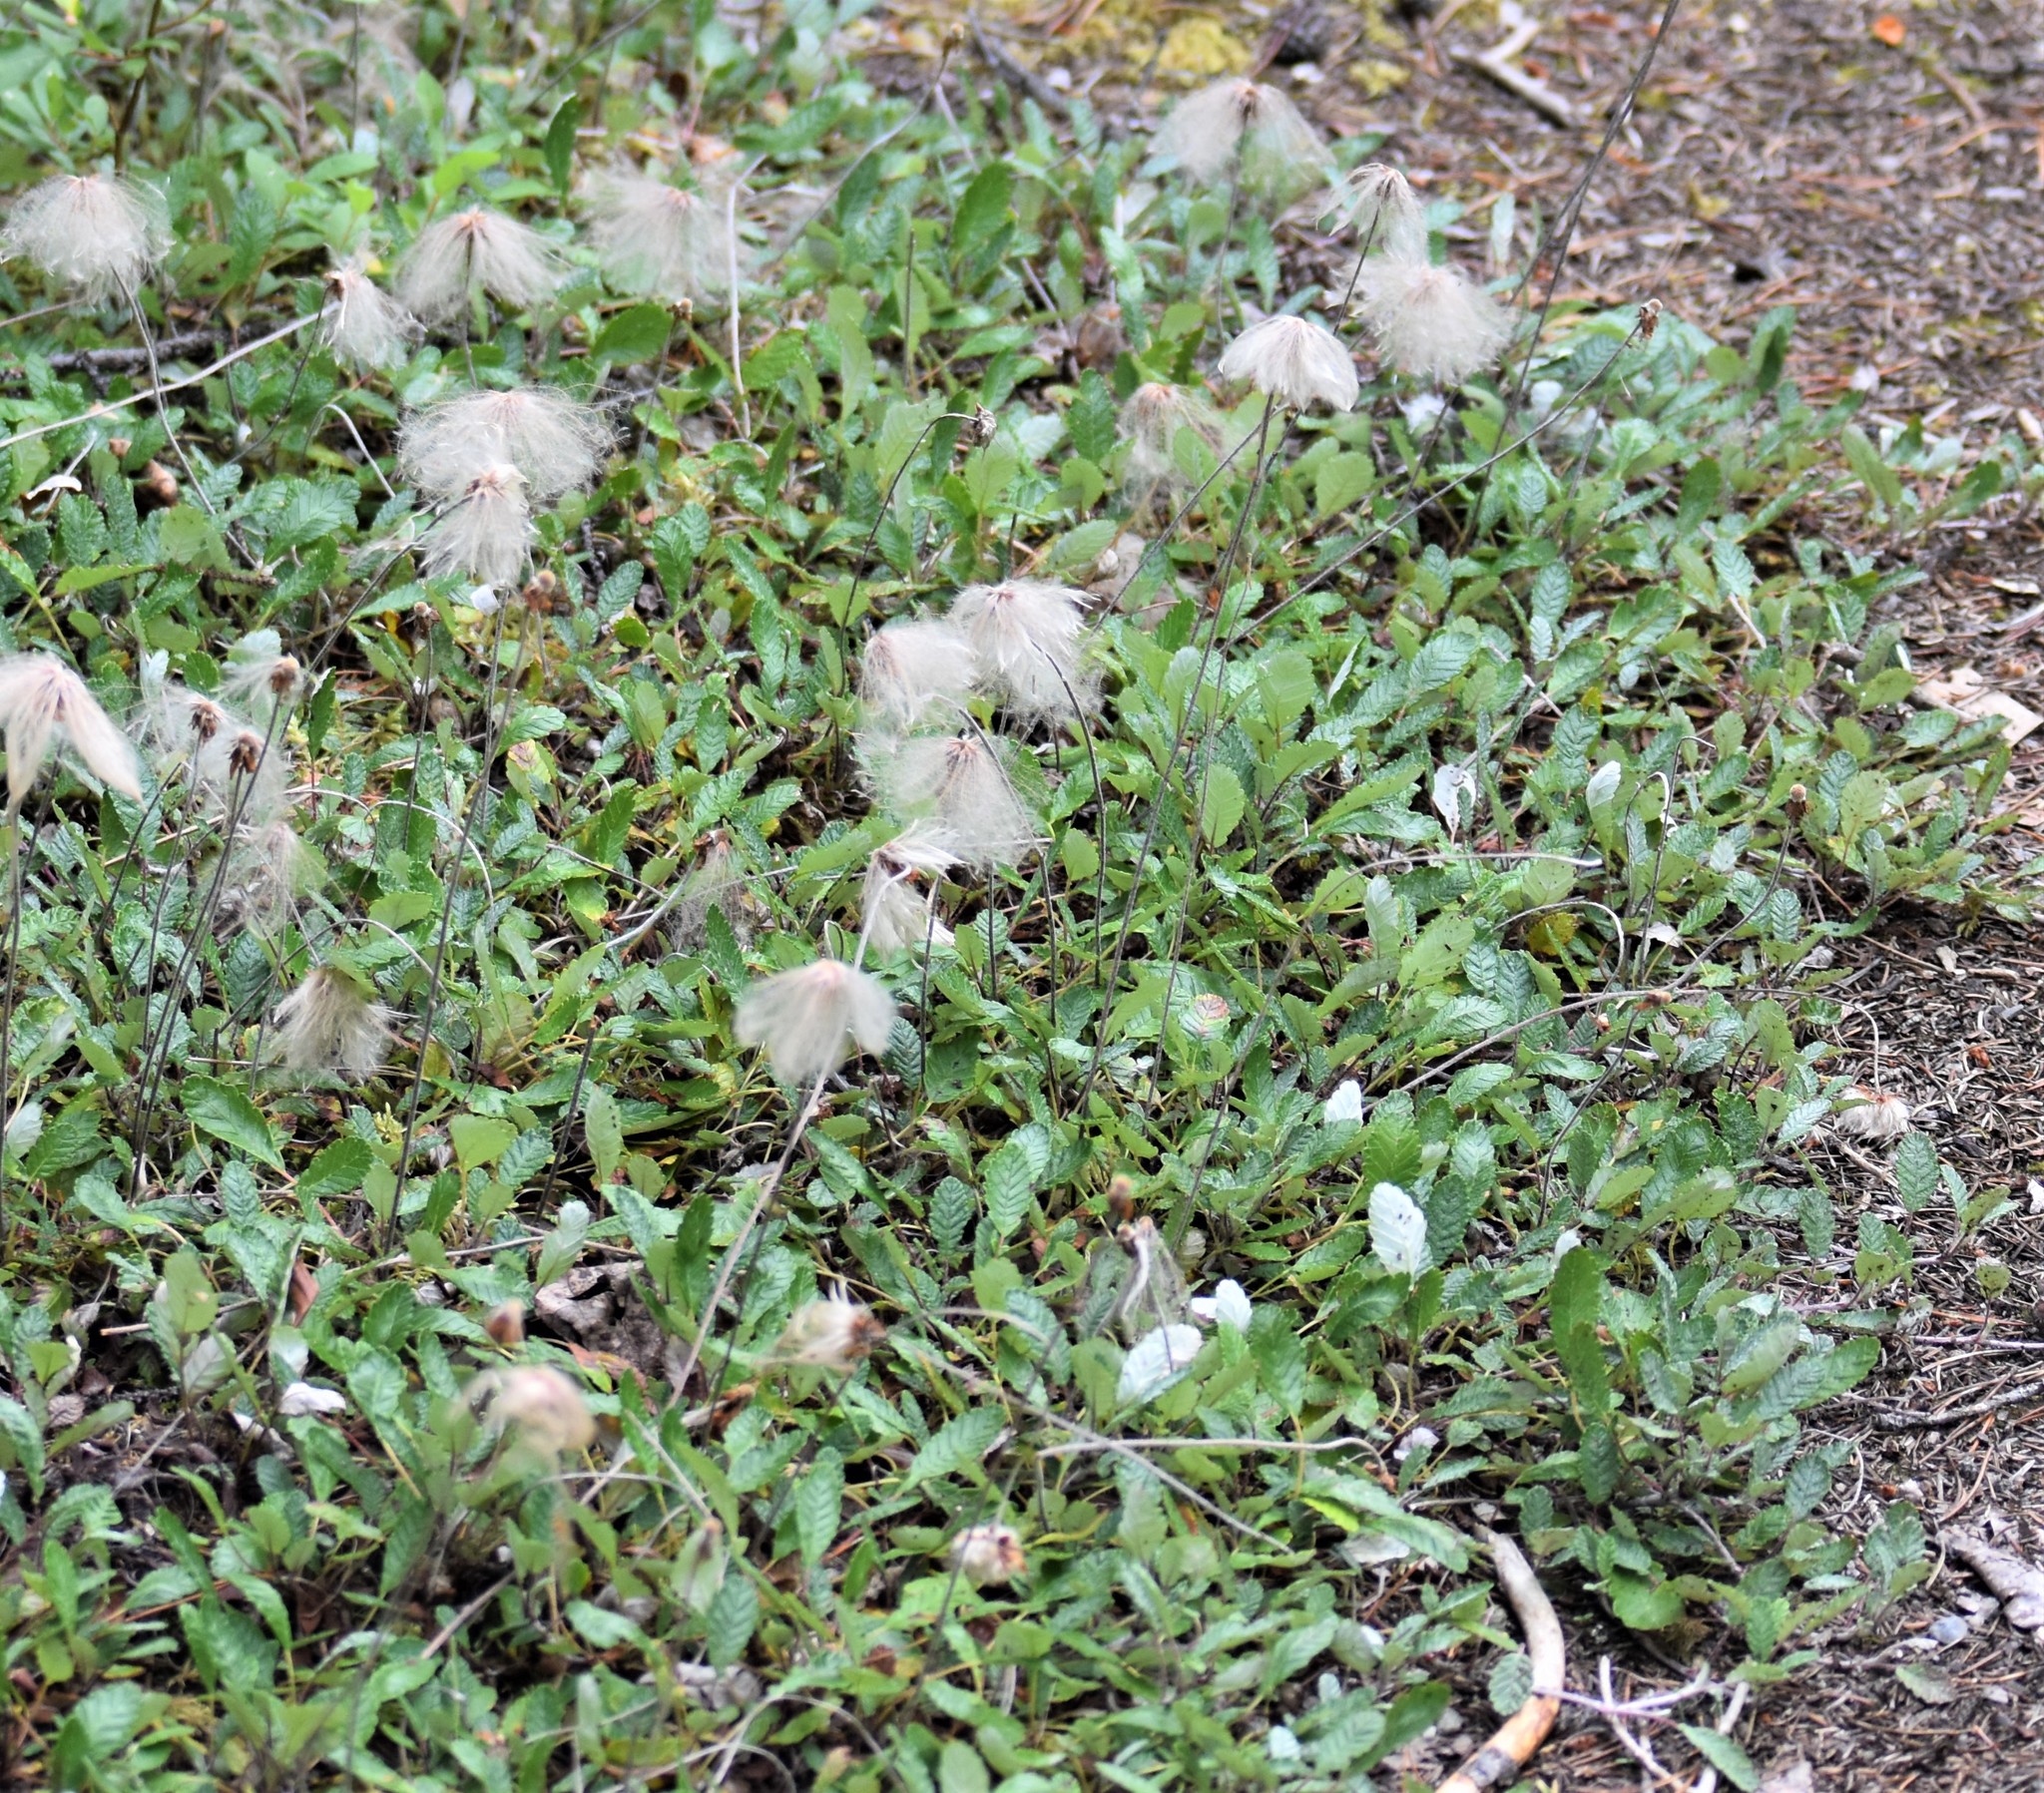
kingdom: Plantae
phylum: Tracheophyta
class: Magnoliopsida
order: Rosales
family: Rosaceae
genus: Dryas
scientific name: Dryas drummondii
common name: Drummond's dryad
